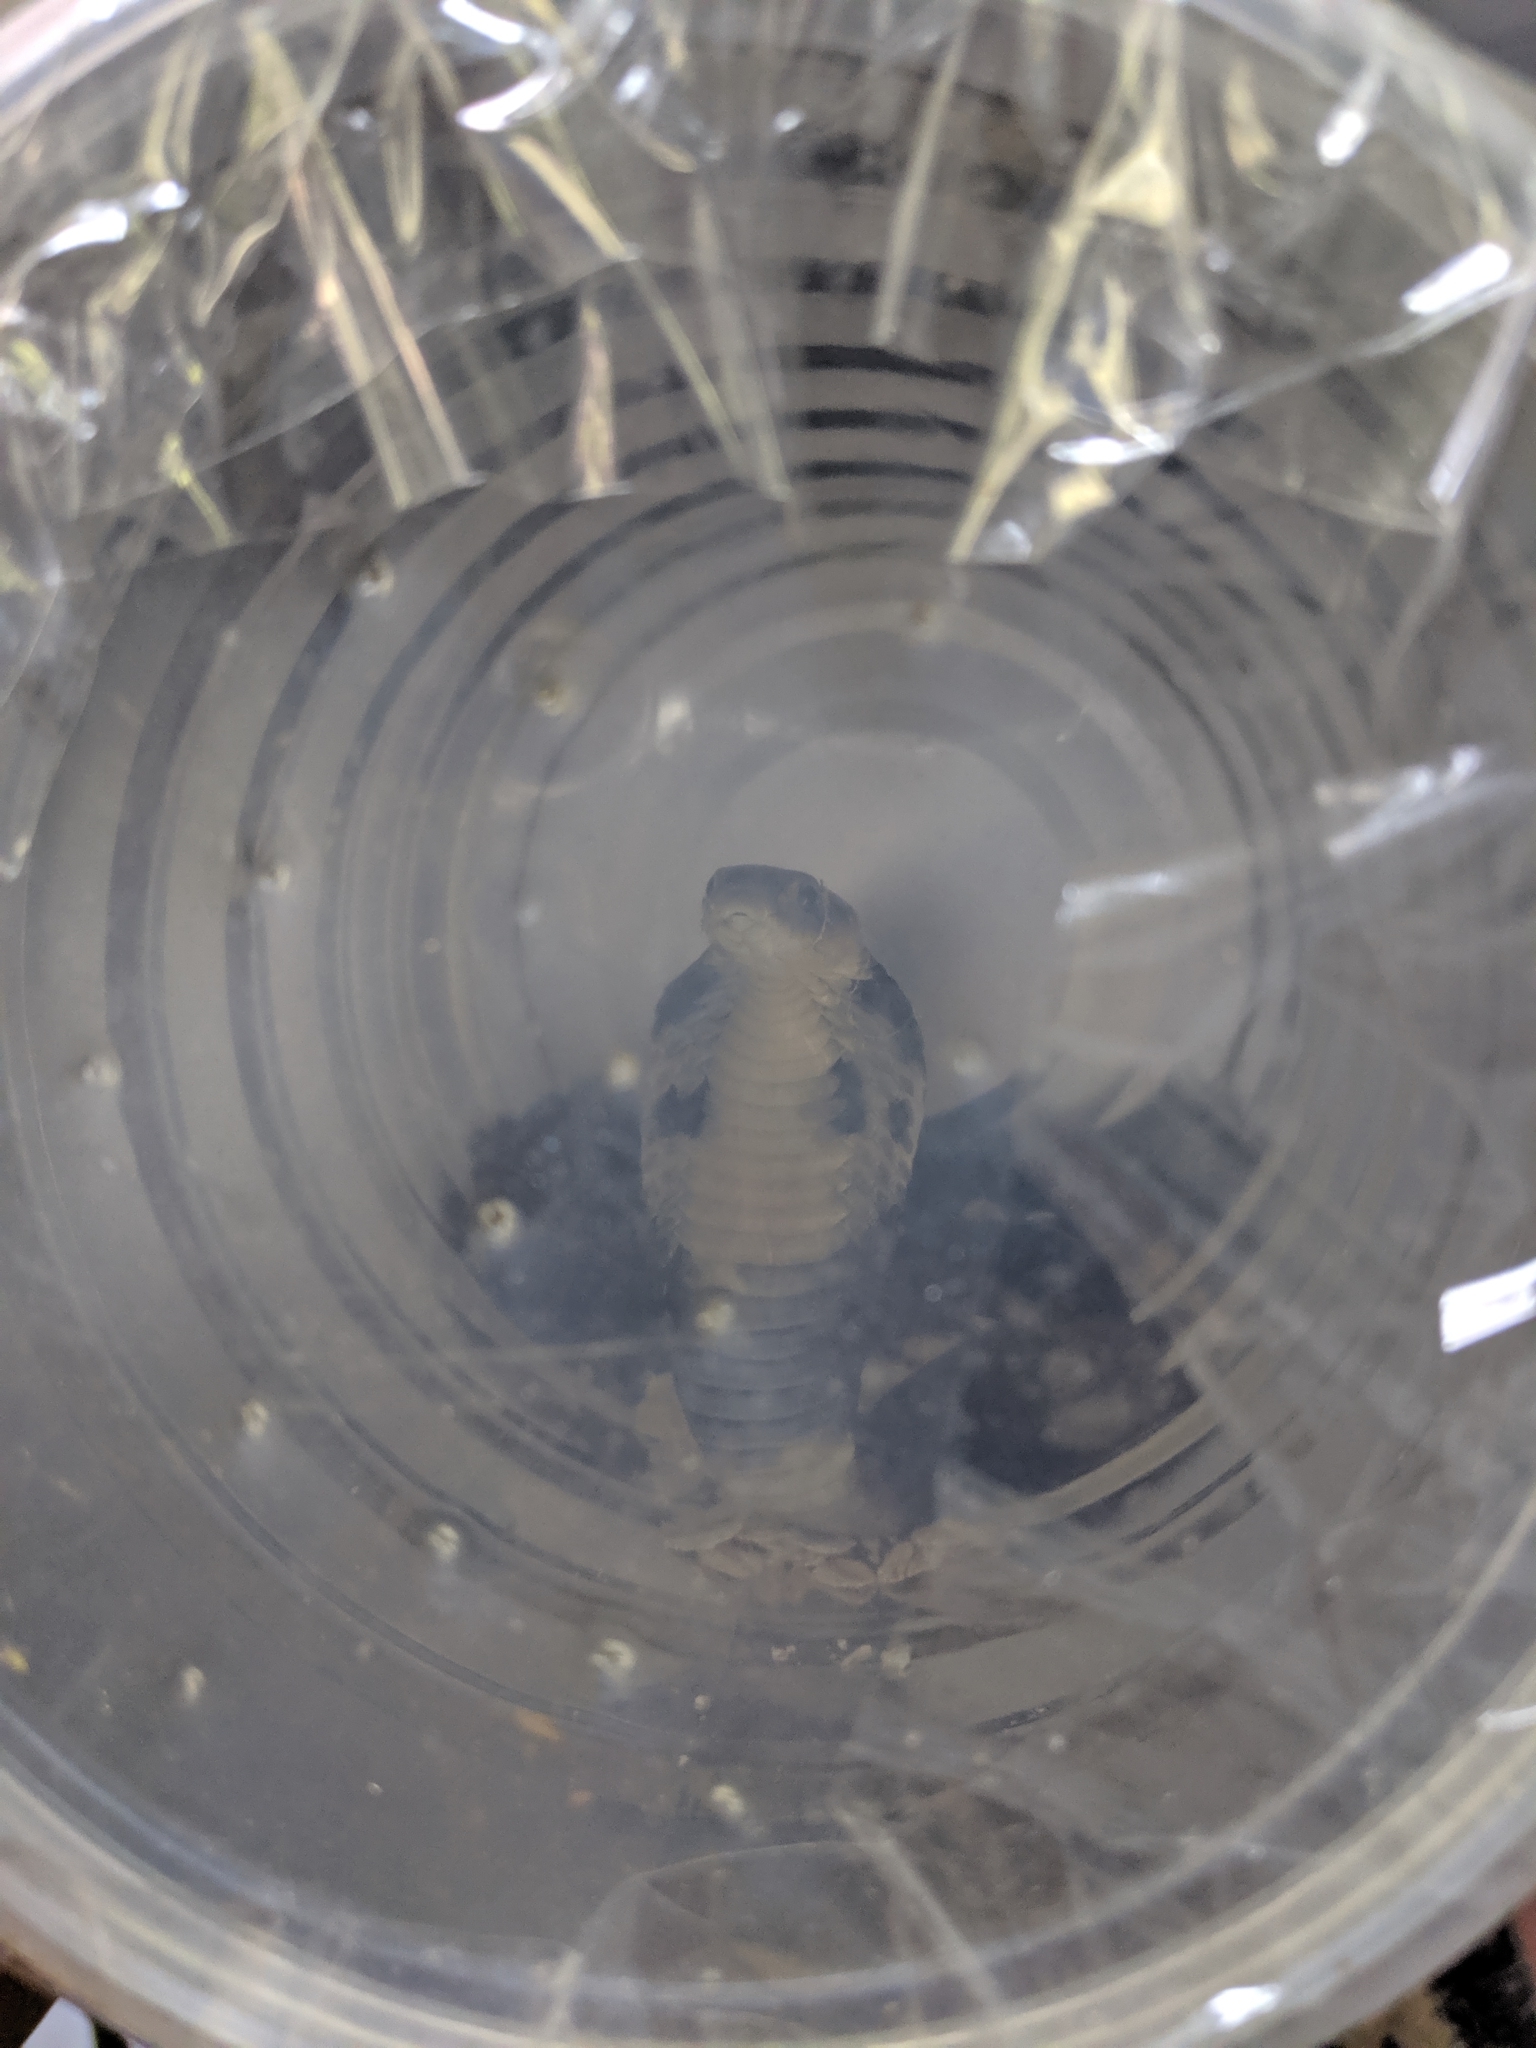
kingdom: Animalia
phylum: Chordata
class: Squamata
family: Elapidae
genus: Naja
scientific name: Naja atra
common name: Chinese cobra
